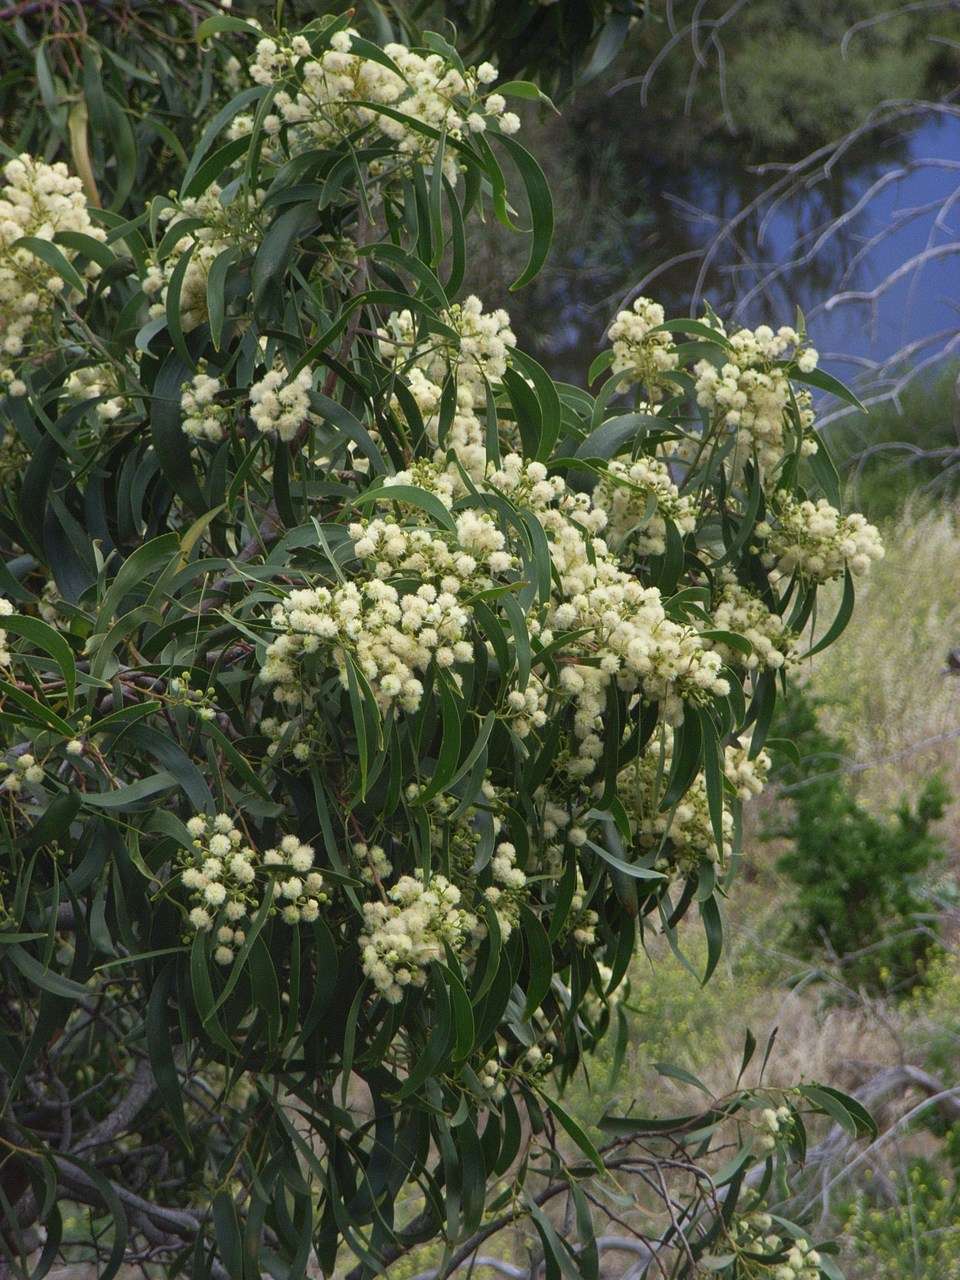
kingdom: Plantae
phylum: Tracheophyta
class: Magnoliopsida
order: Fabales
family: Fabaceae
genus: Acacia
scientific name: Acacia implexa
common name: Black wattle
